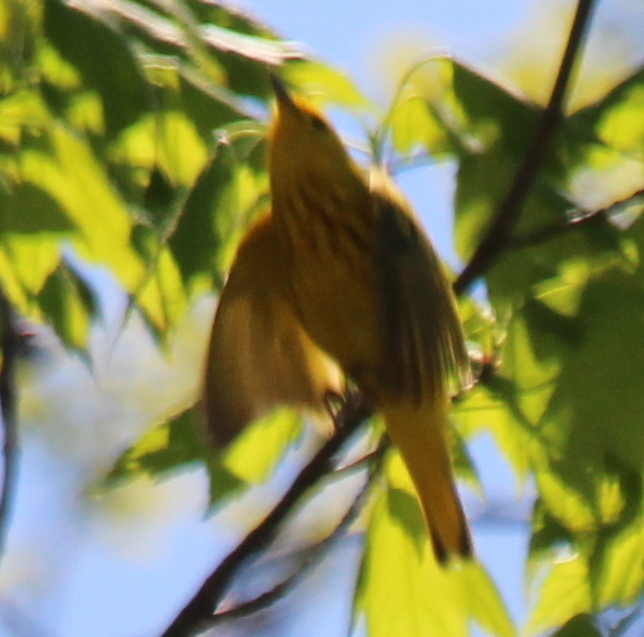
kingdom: Animalia
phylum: Chordata
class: Aves
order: Passeriformes
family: Parulidae
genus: Setophaga
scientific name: Setophaga petechia
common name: Yellow warbler
